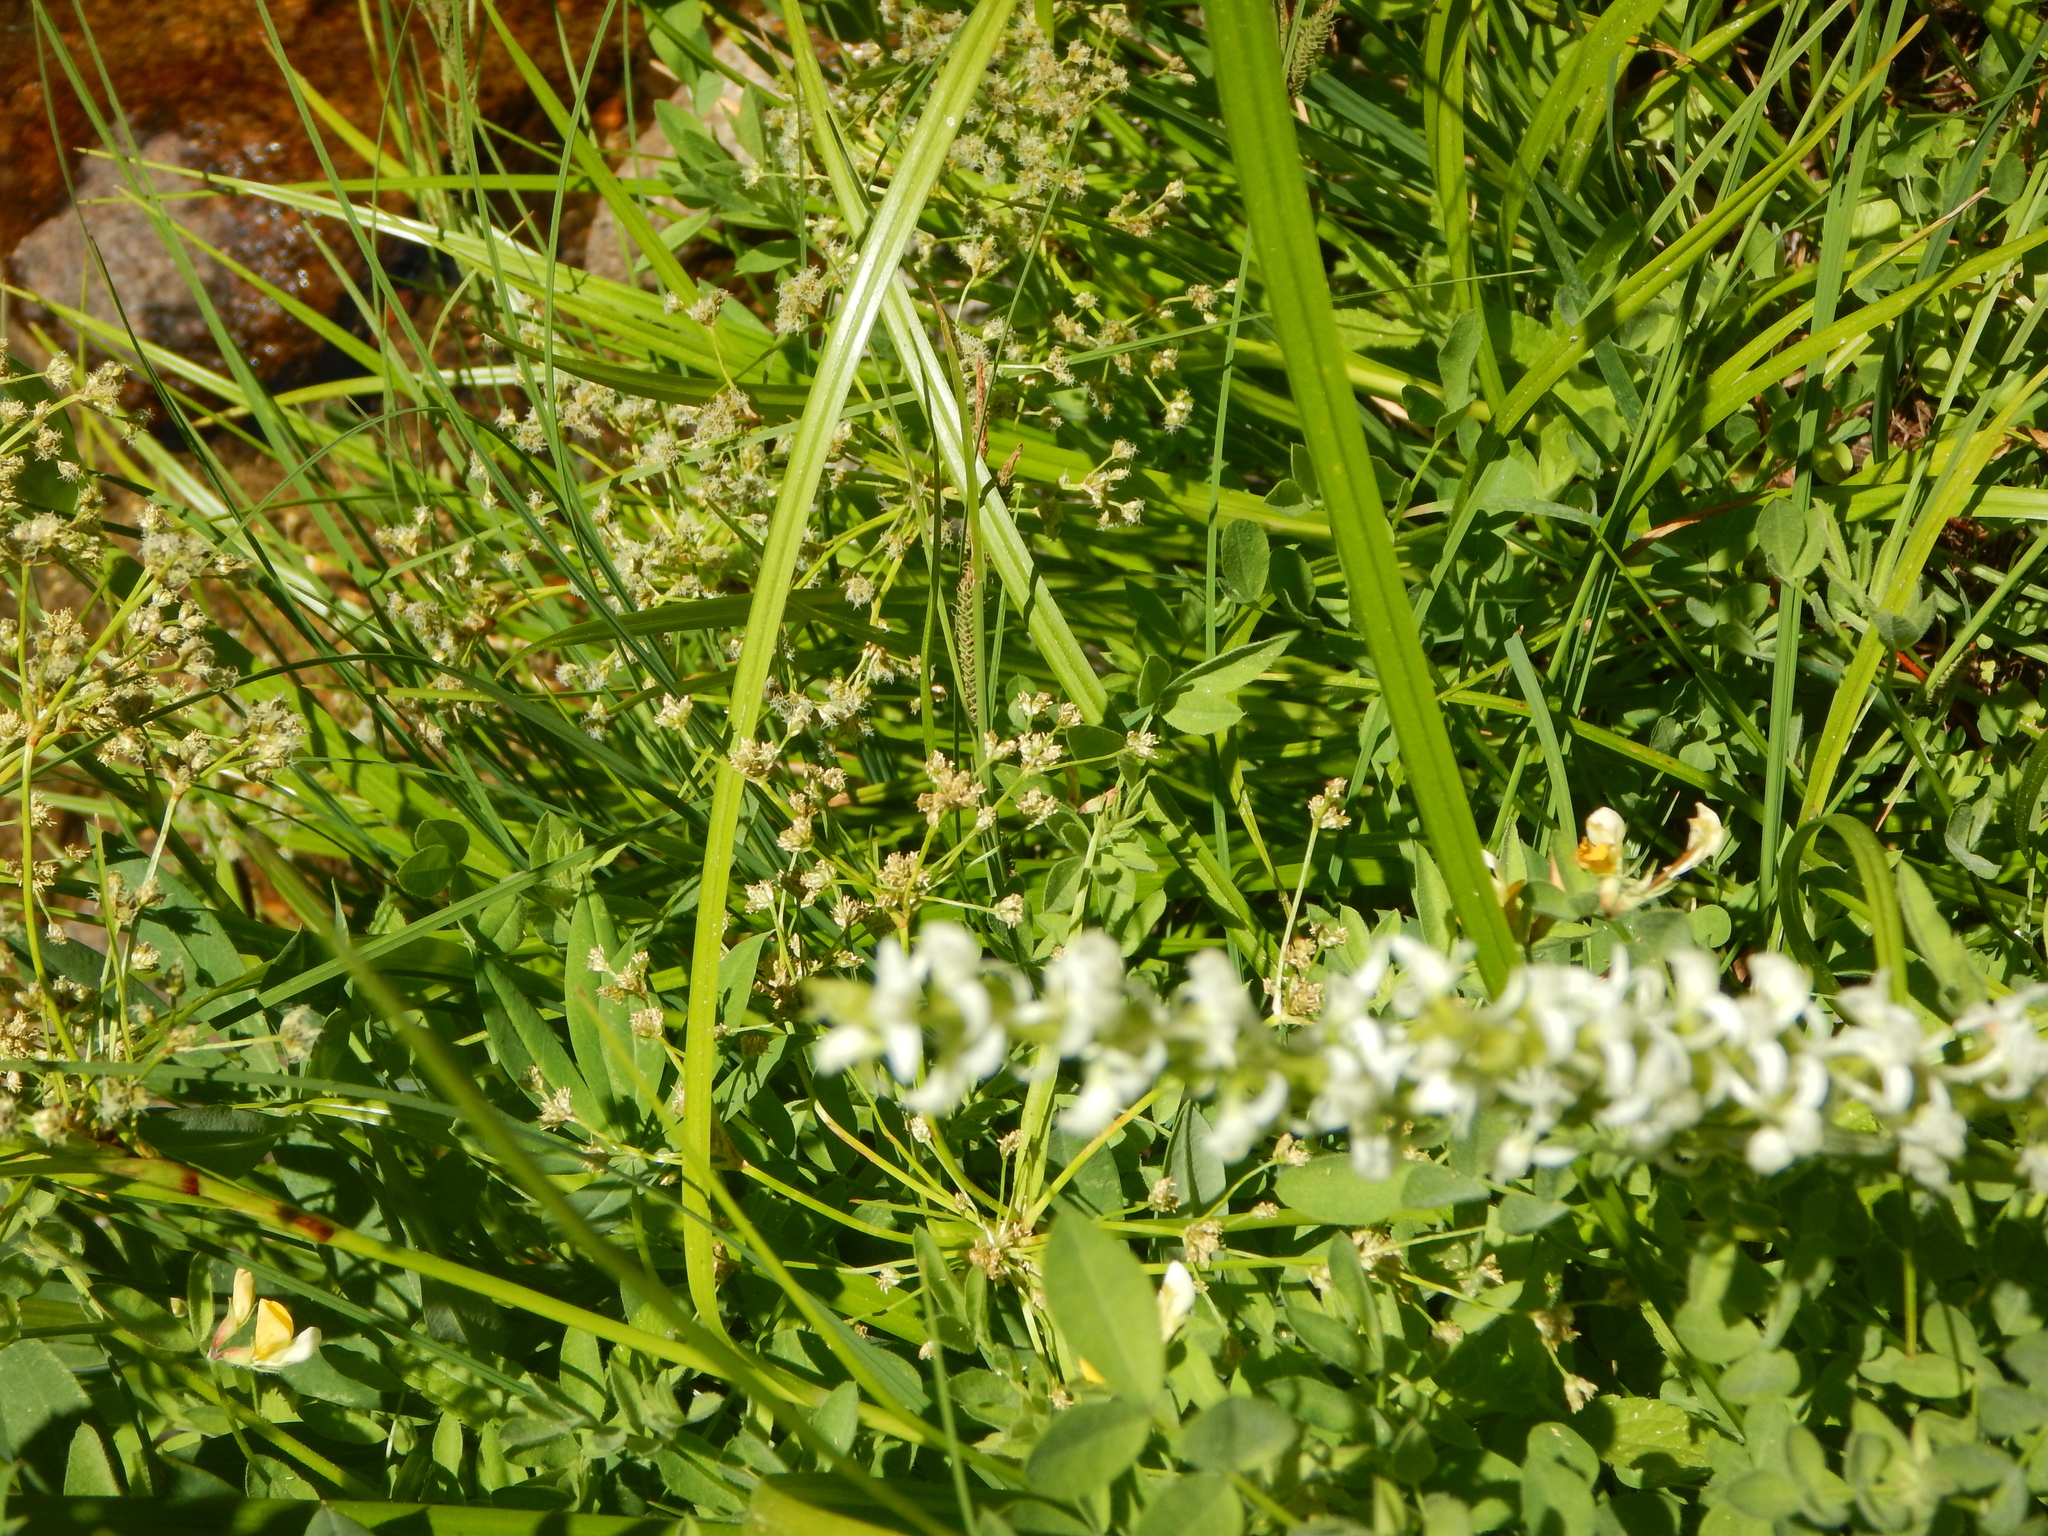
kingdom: Plantae
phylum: Tracheophyta
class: Liliopsida
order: Asparagales
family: Orchidaceae
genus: Platanthera
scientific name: Platanthera dilatata
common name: Bog candles
